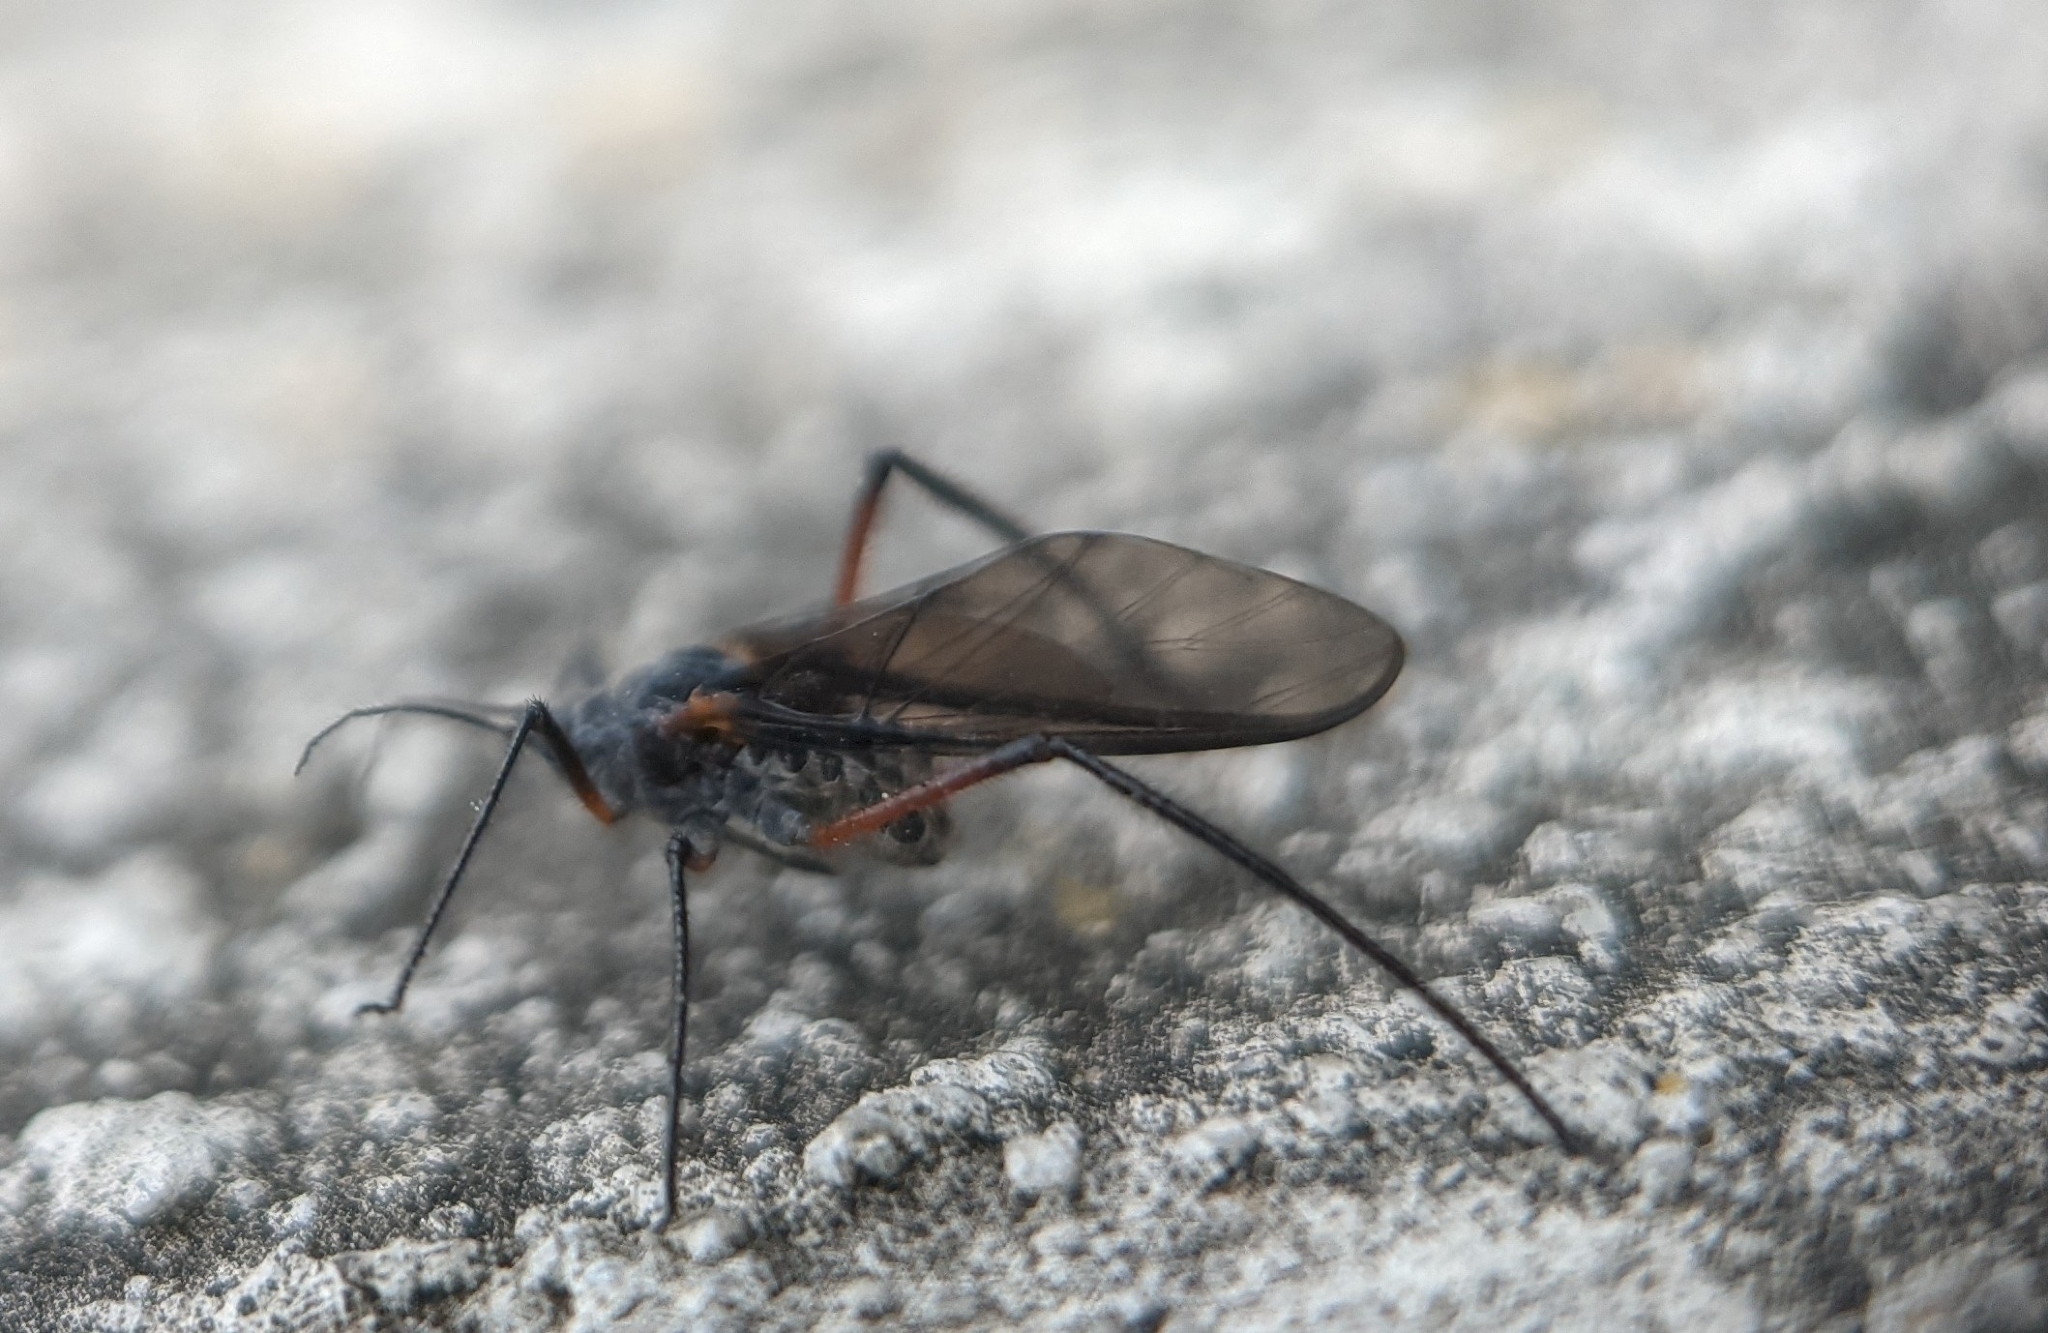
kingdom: Animalia
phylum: Arthropoda
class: Insecta
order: Hemiptera
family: Aphididae
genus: Longistigma
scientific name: Longistigma caryae
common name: Giant bark aphid
